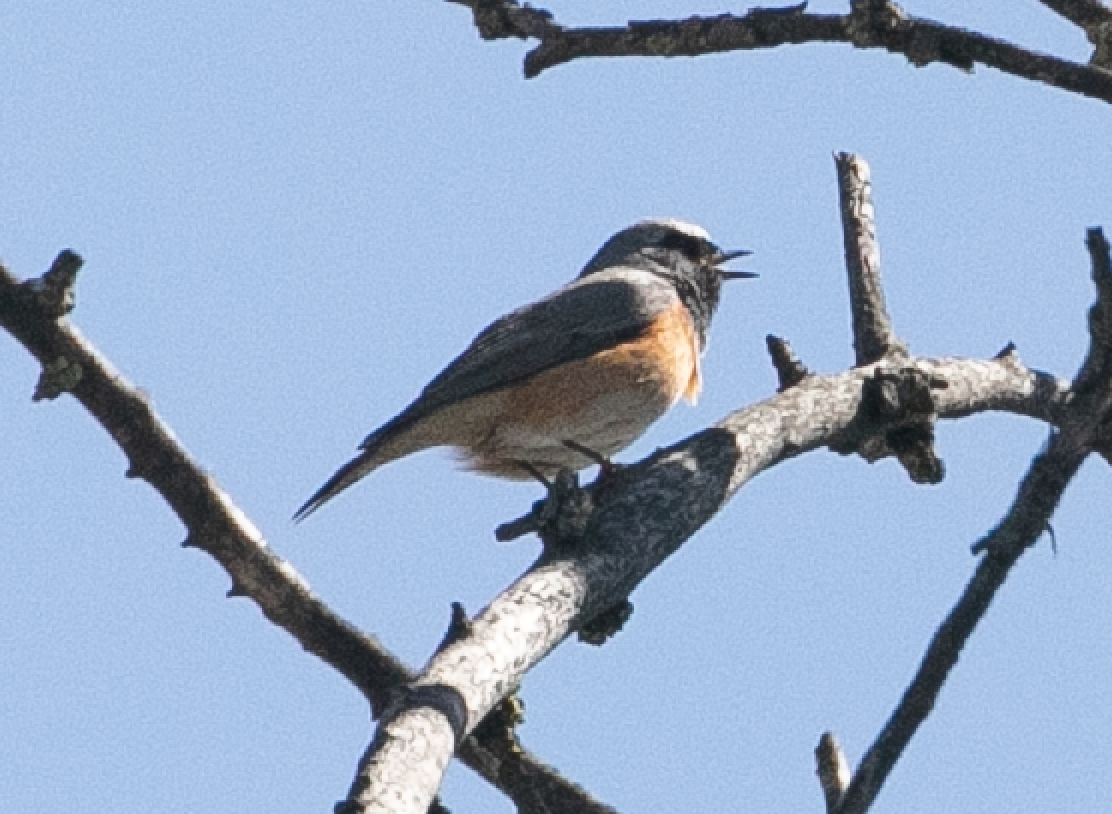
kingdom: Animalia
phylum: Chordata
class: Aves
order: Passeriformes
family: Muscicapidae
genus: Phoenicurus
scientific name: Phoenicurus phoenicurus
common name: Common redstart
